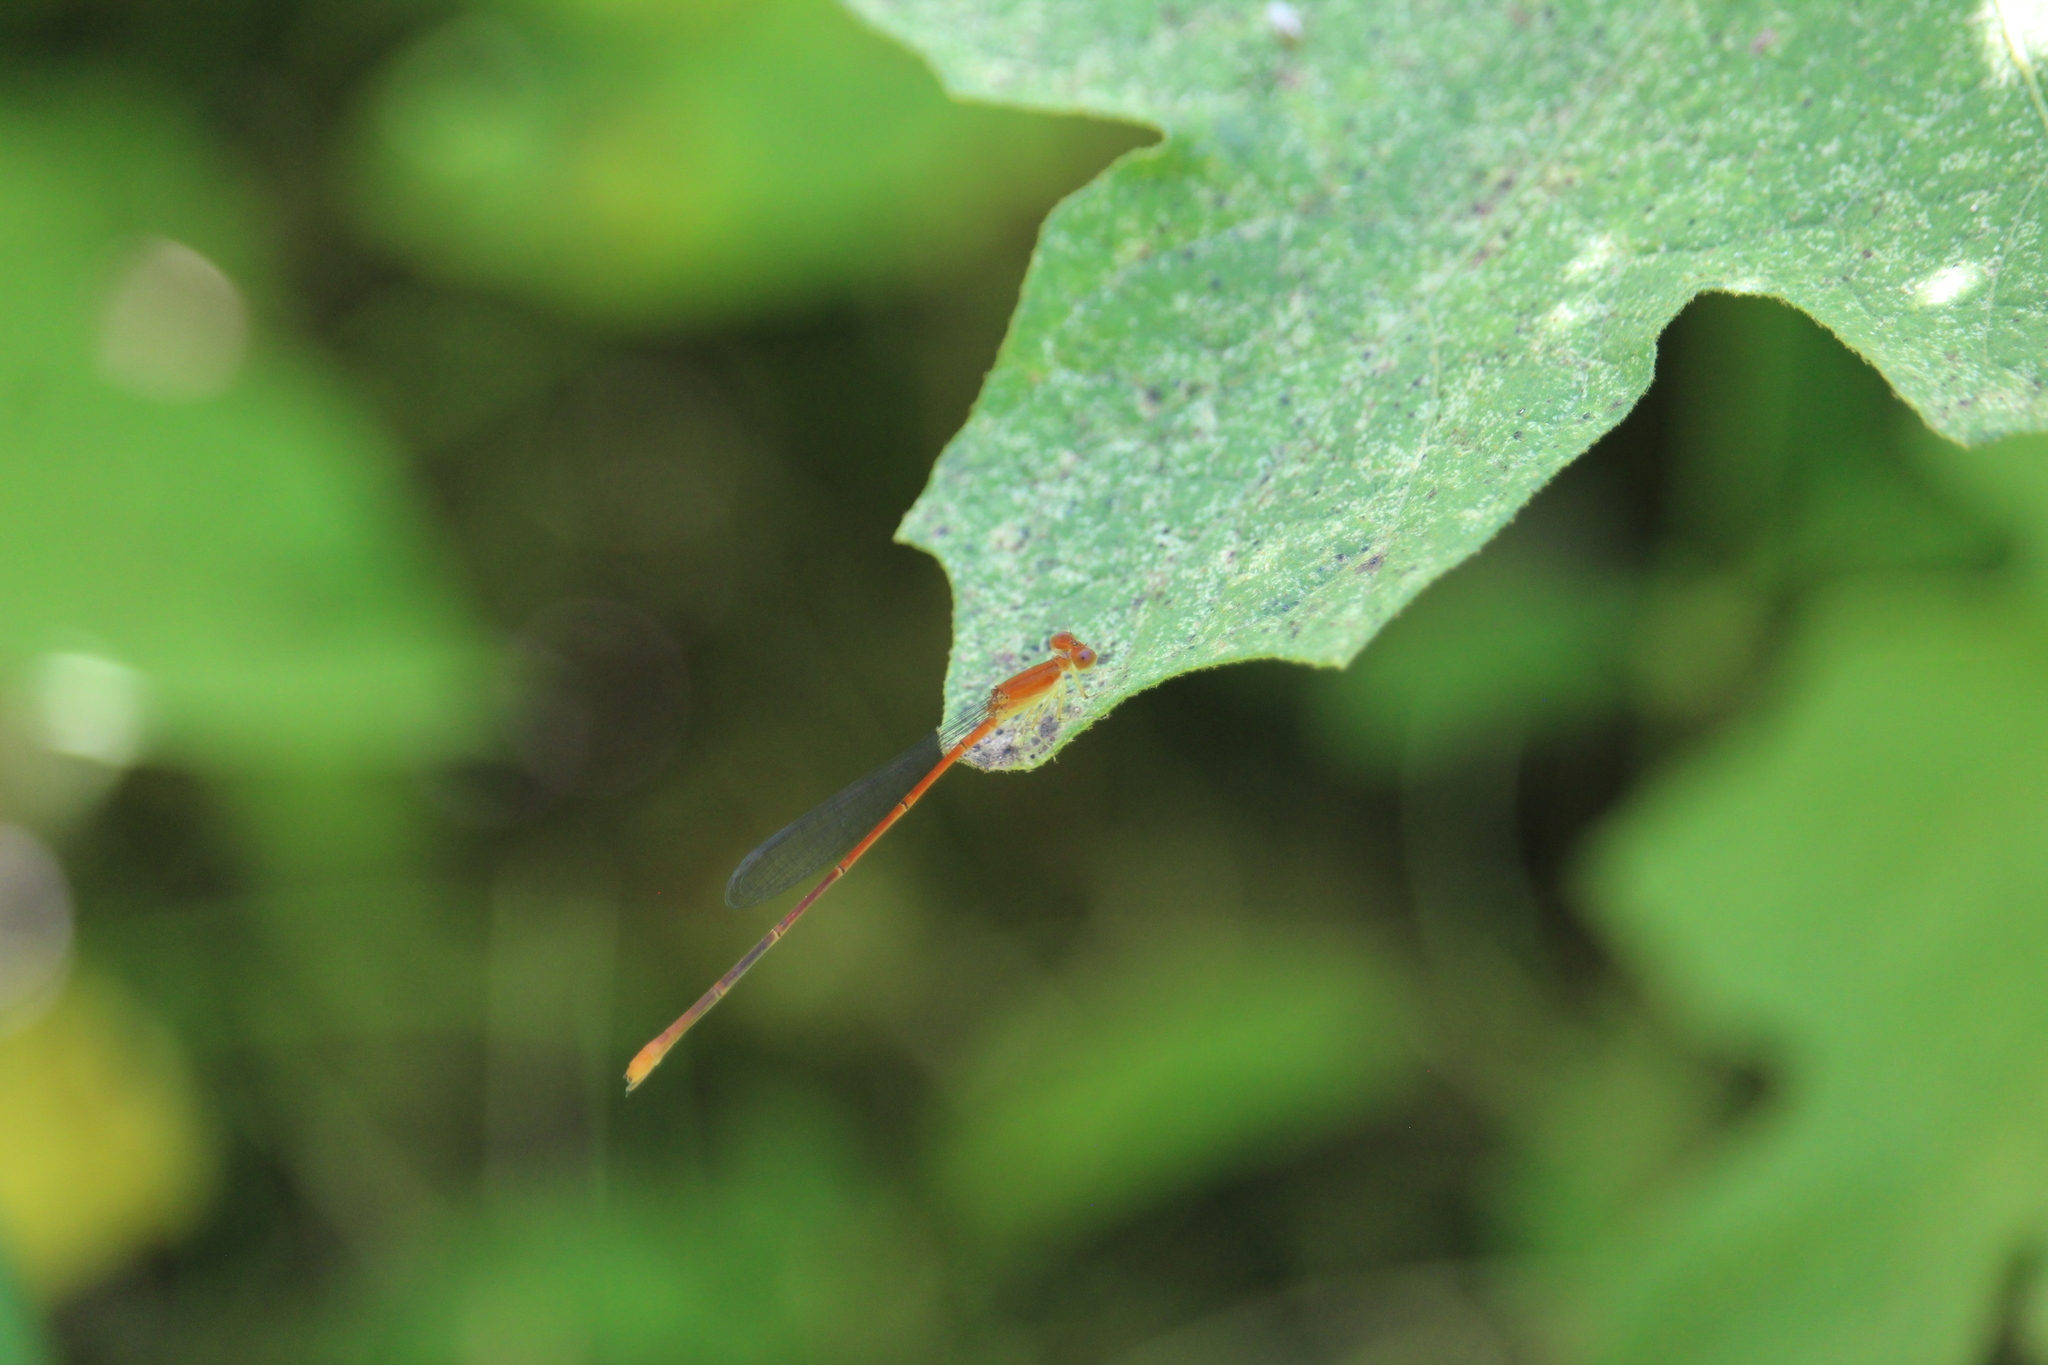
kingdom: Animalia
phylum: Arthropoda
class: Insecta
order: Odonata
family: Coenagrionidae
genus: Leptobasis
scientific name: Leptobasis vacillans
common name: Red-tipped swampdamsel
